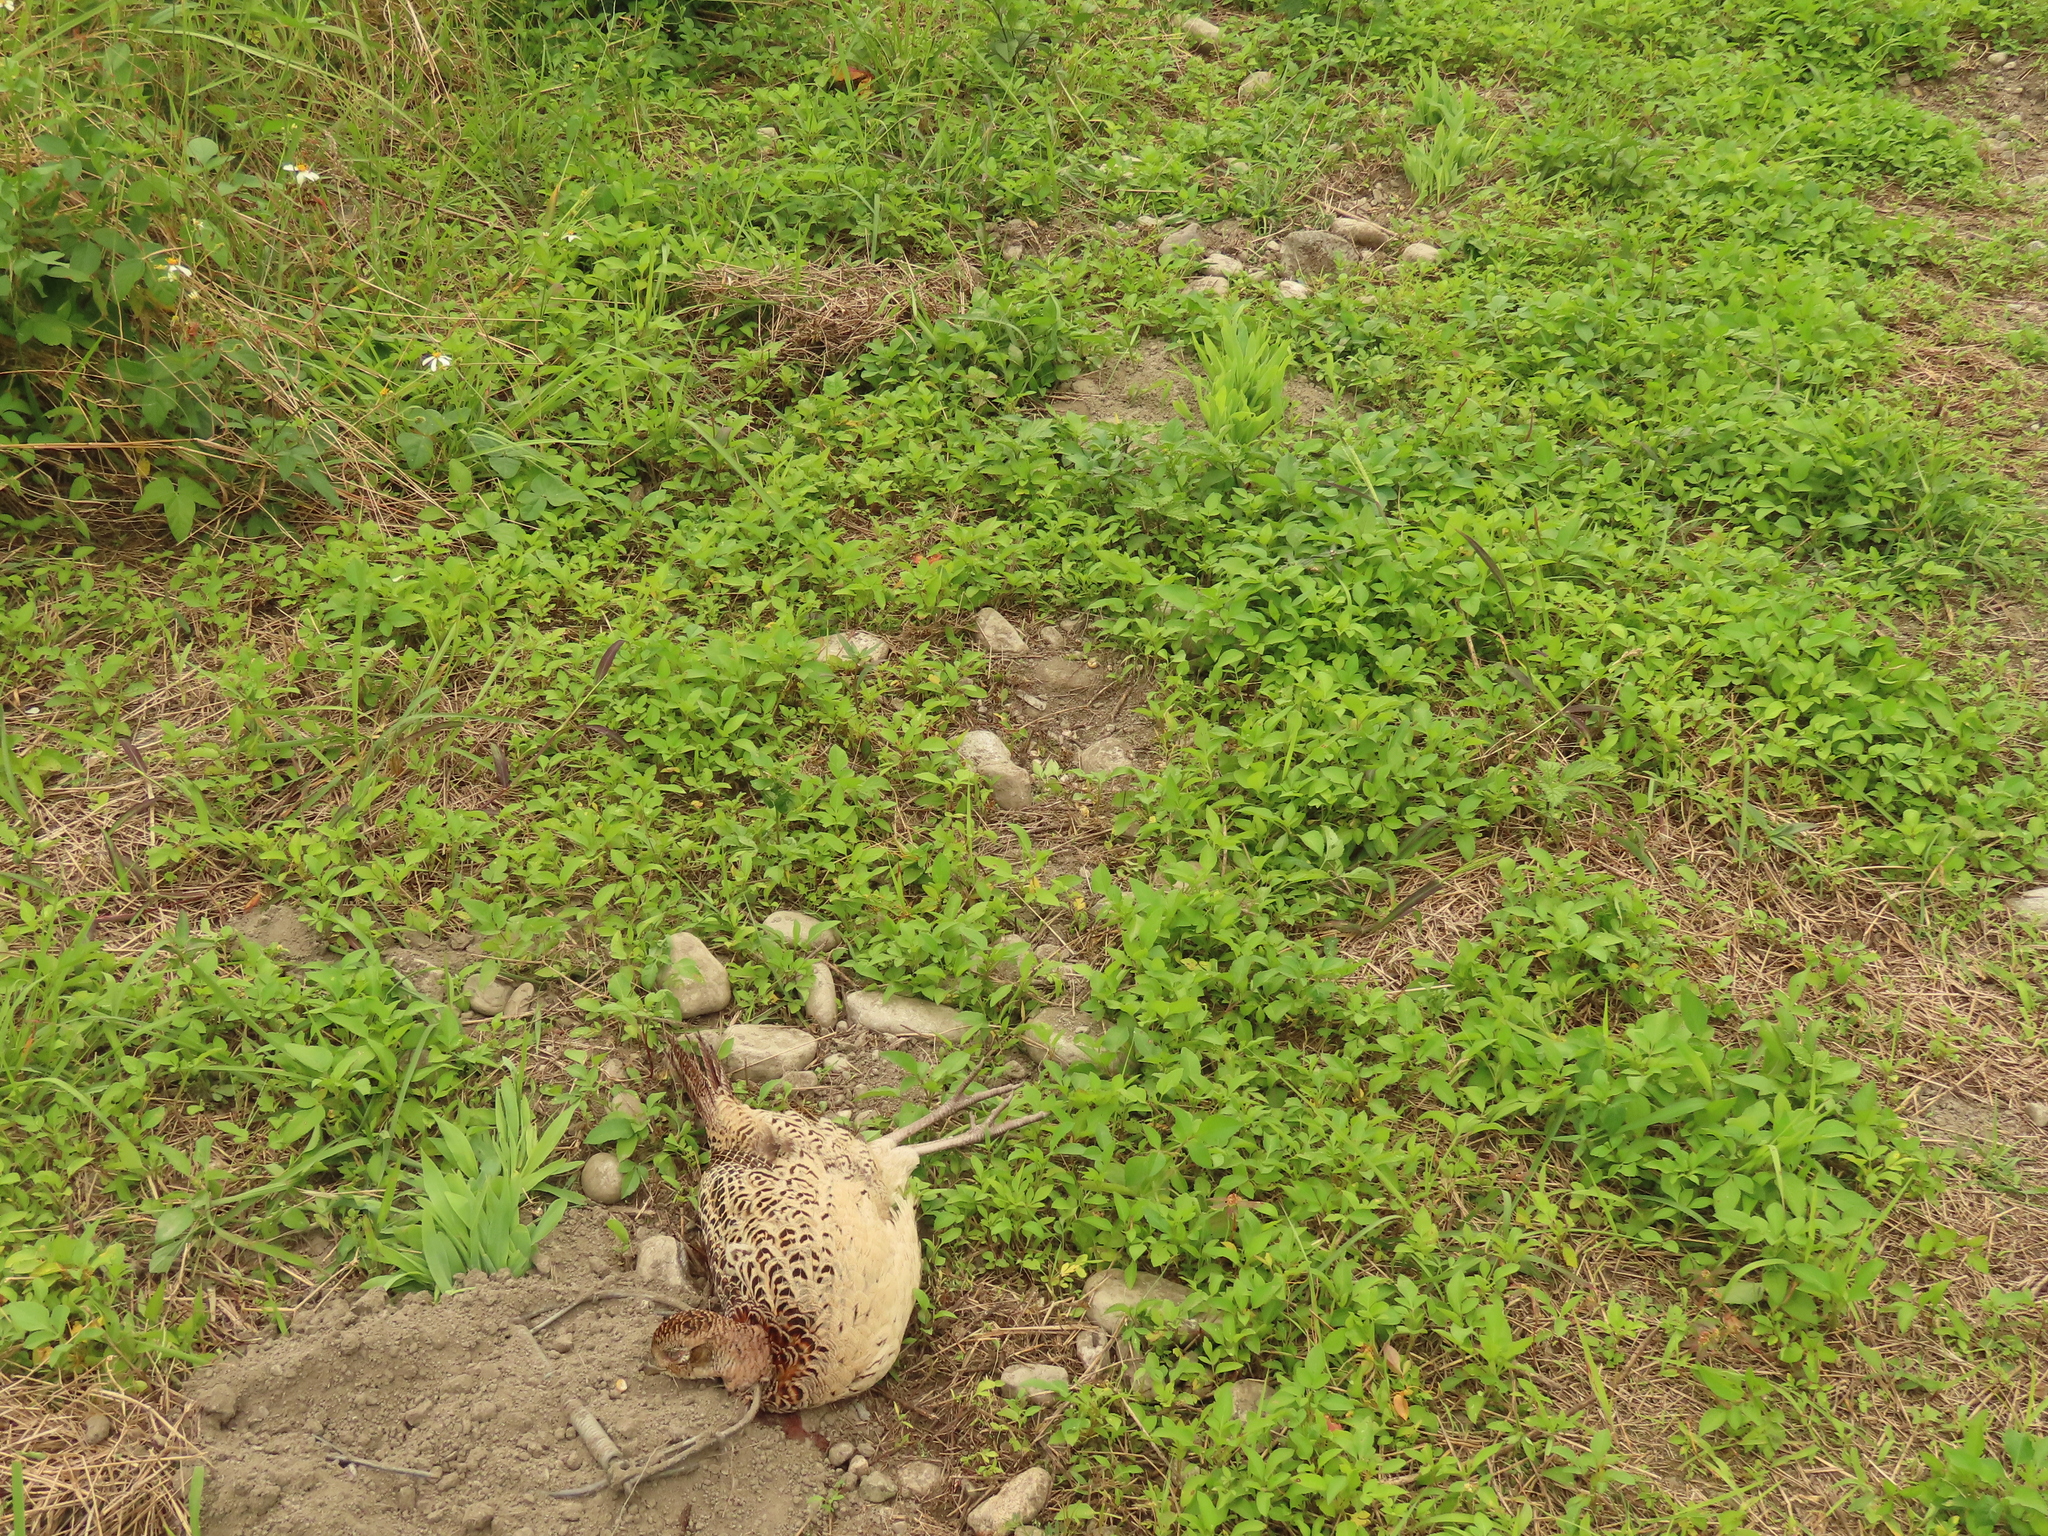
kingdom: Animalia
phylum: Chordata
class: Aves
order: Galliformes
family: Phasianidae
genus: Phasianus
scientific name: Phasianus colchicus
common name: Common pheasant
